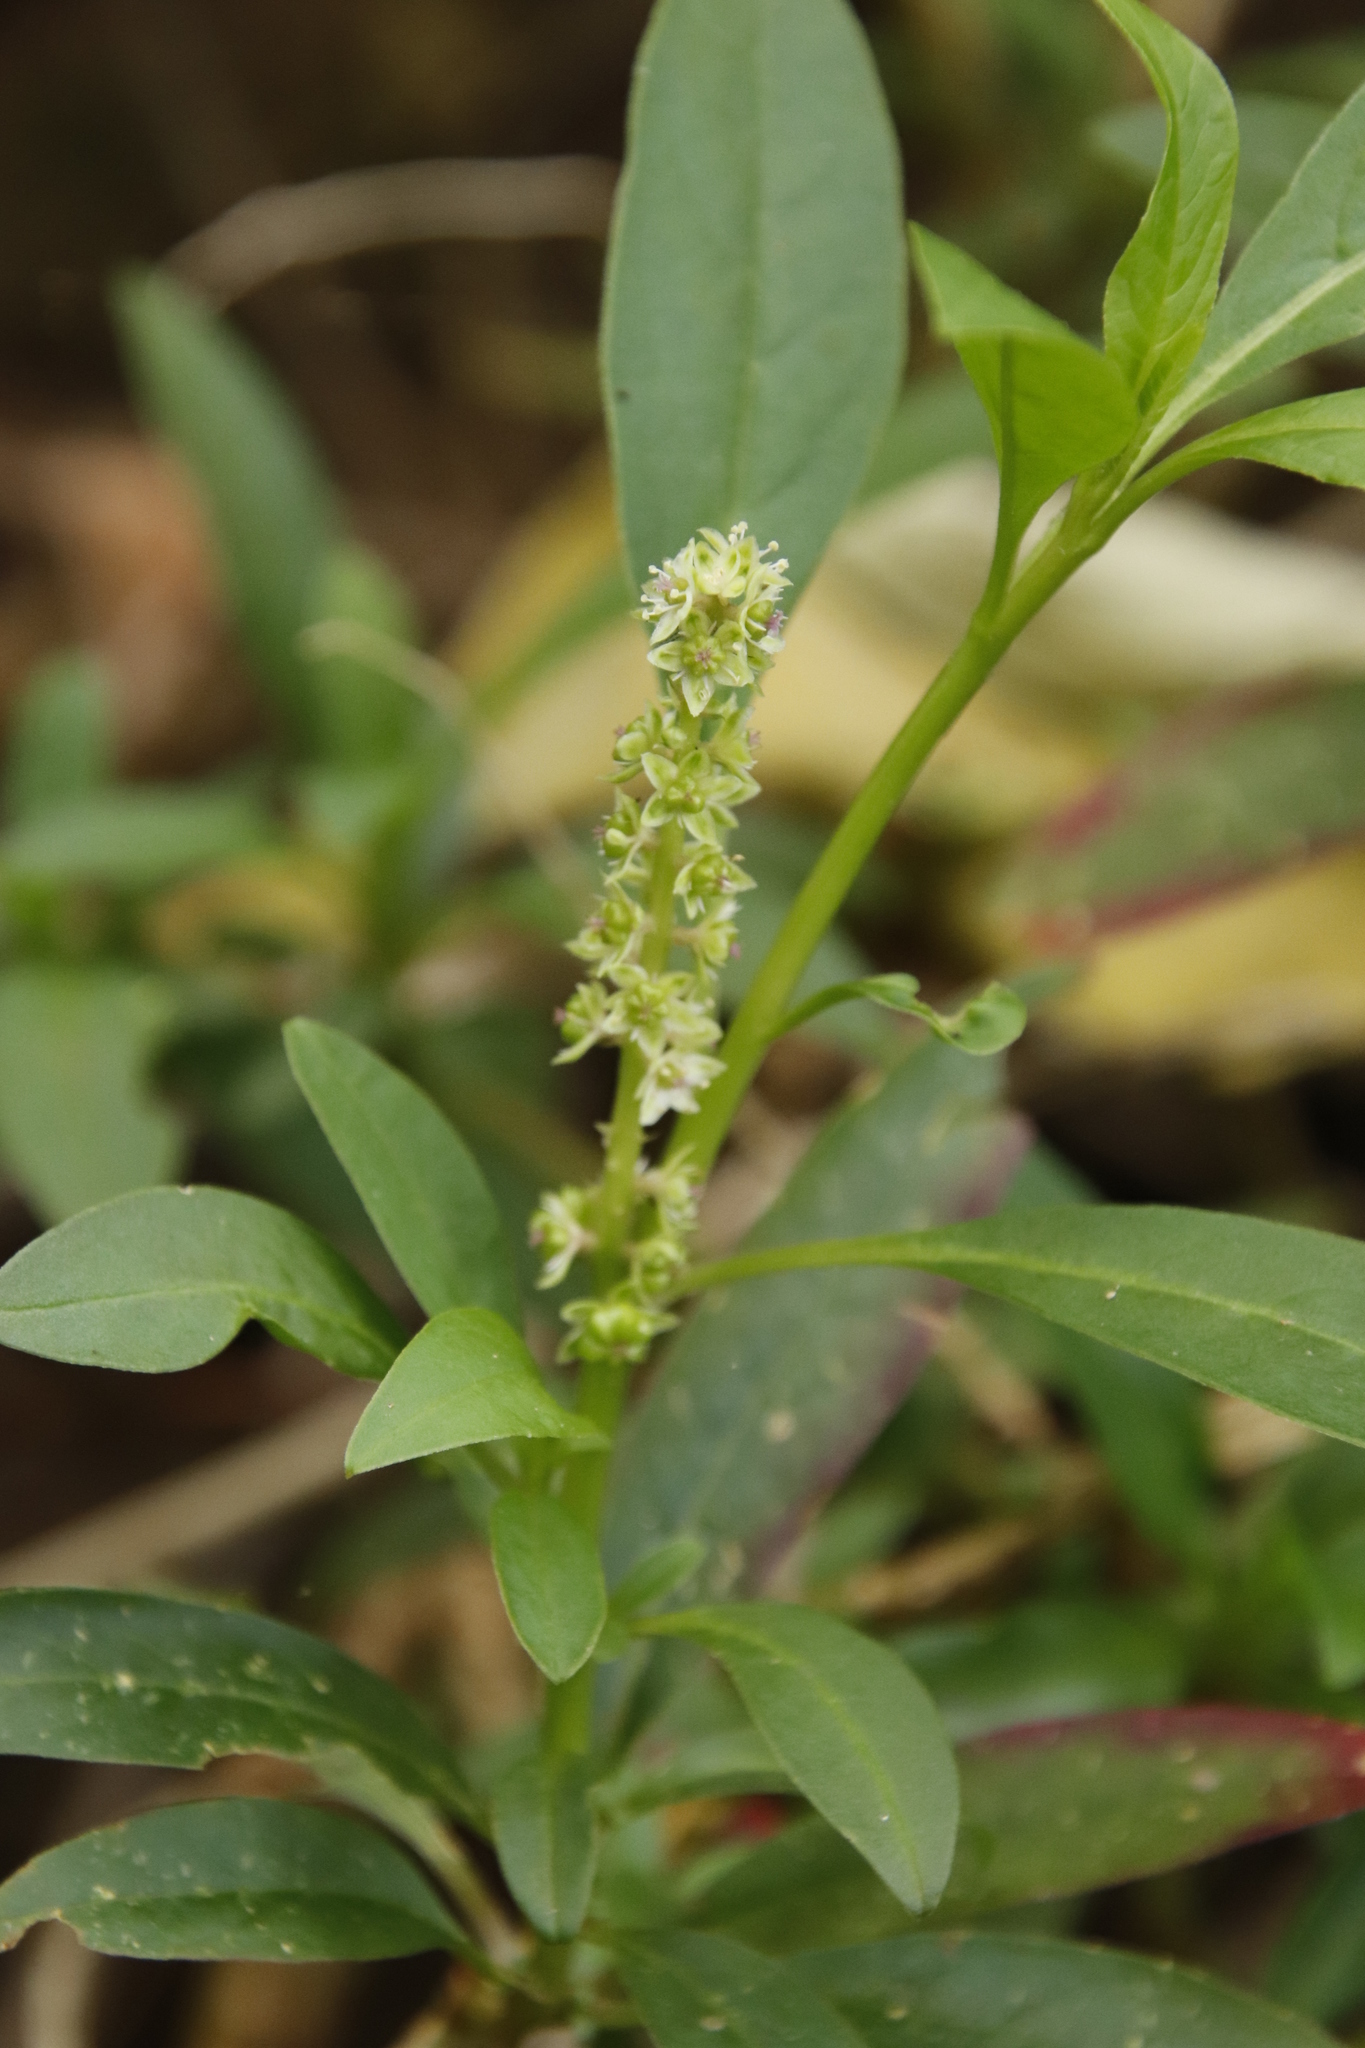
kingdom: Plantae
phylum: Tracheophyta
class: Magnoliopsida
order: Caryophyllales
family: Phytolaccaceae
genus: Phytolacca
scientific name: Phytolacca icosandra
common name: Button pokeweed
